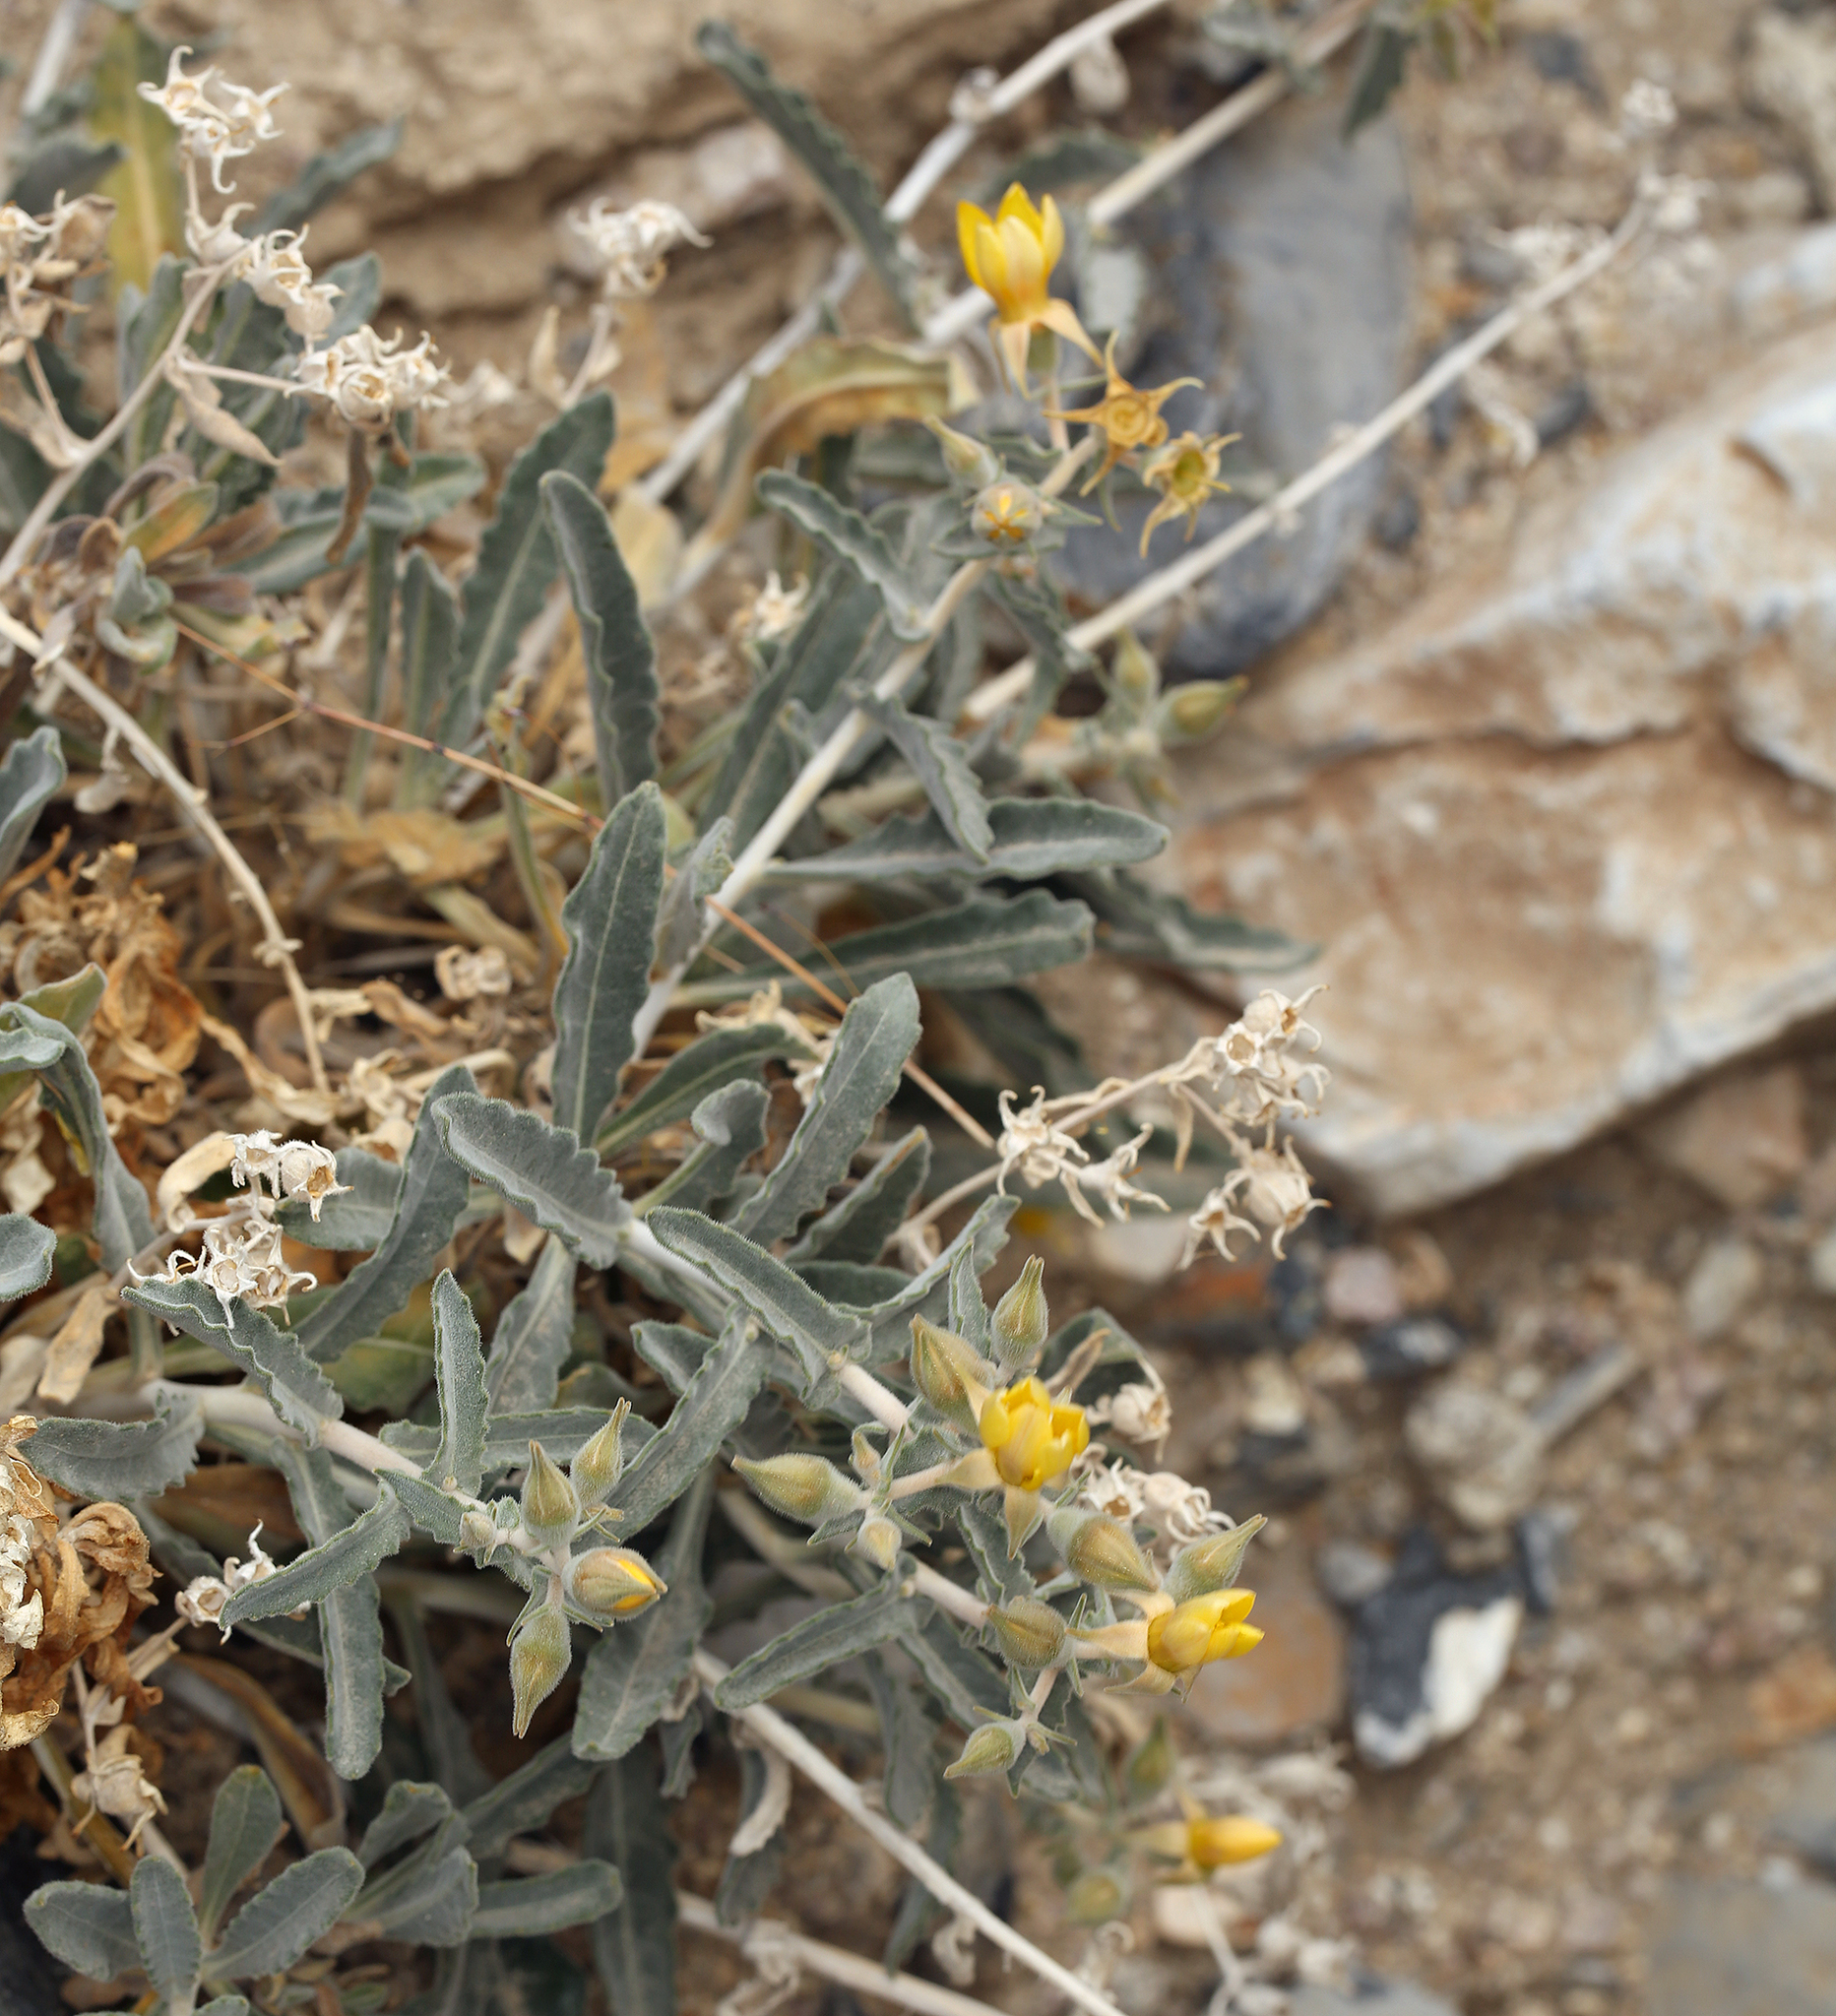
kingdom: Plantae
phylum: Tracheophyta
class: Magnoliopsida
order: Cornales
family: Loasaceae
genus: Mentzelia
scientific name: Mentzelia oreophila
